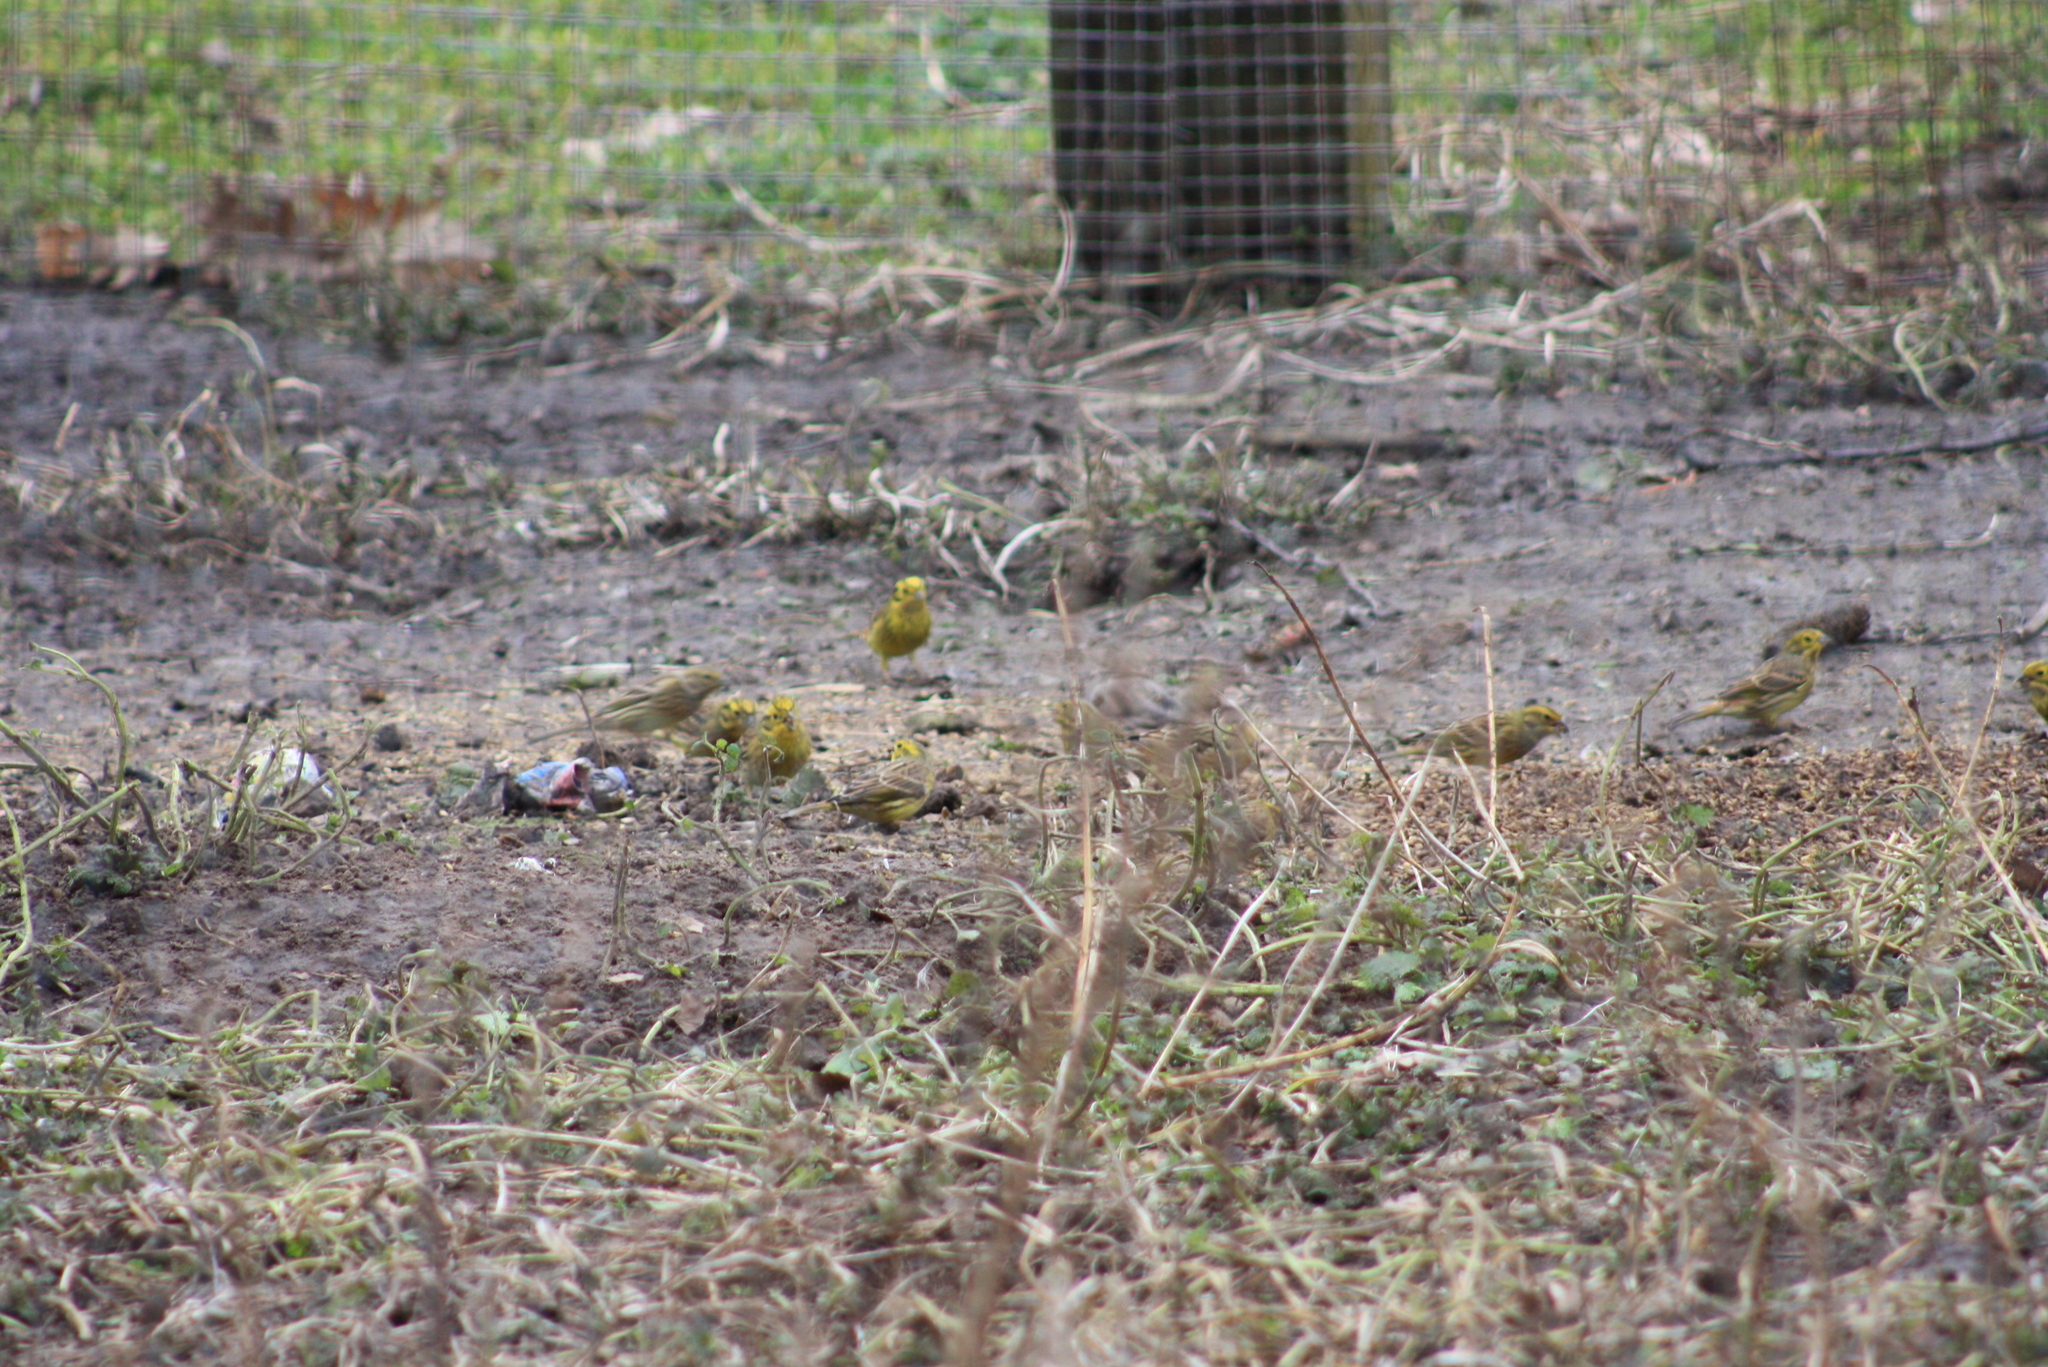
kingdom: Animalia
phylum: Chordata
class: Aves
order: Passeriformes
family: Emberizidae
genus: Emberiza
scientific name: Emberiza citrinella
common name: Yellowhammer
